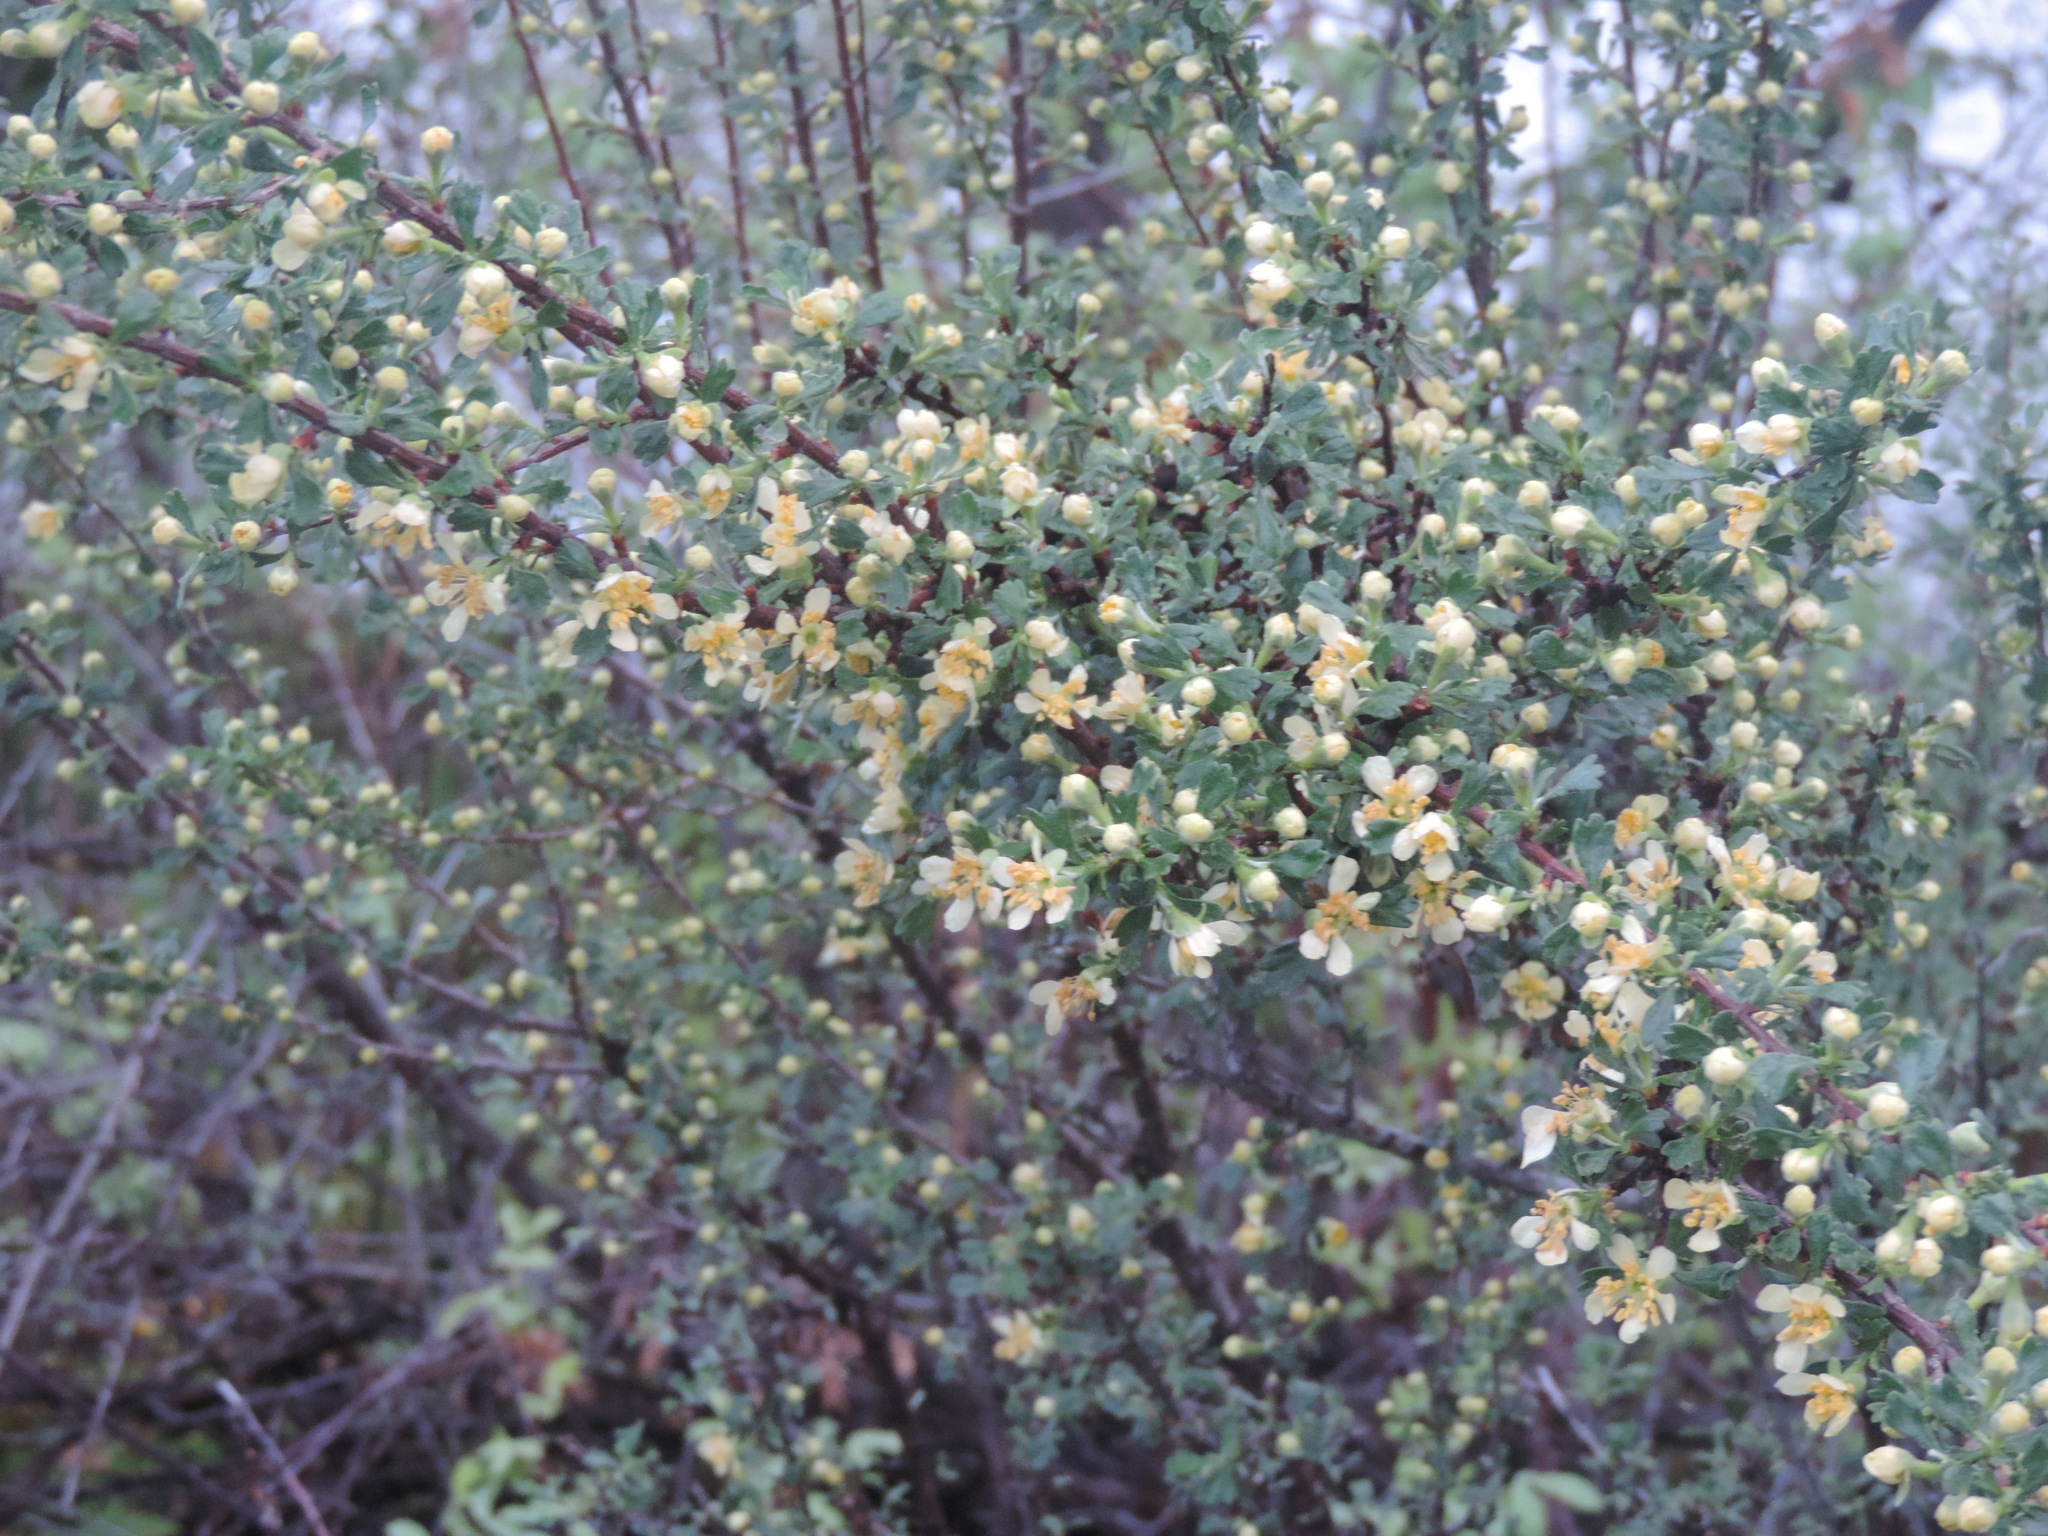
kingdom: Plantae
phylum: Tracheophyta
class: Magnoliopsida
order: Rosales
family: Rosaceae
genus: Purshia
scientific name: Purshia tridentata
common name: Antelope bitterbrush
